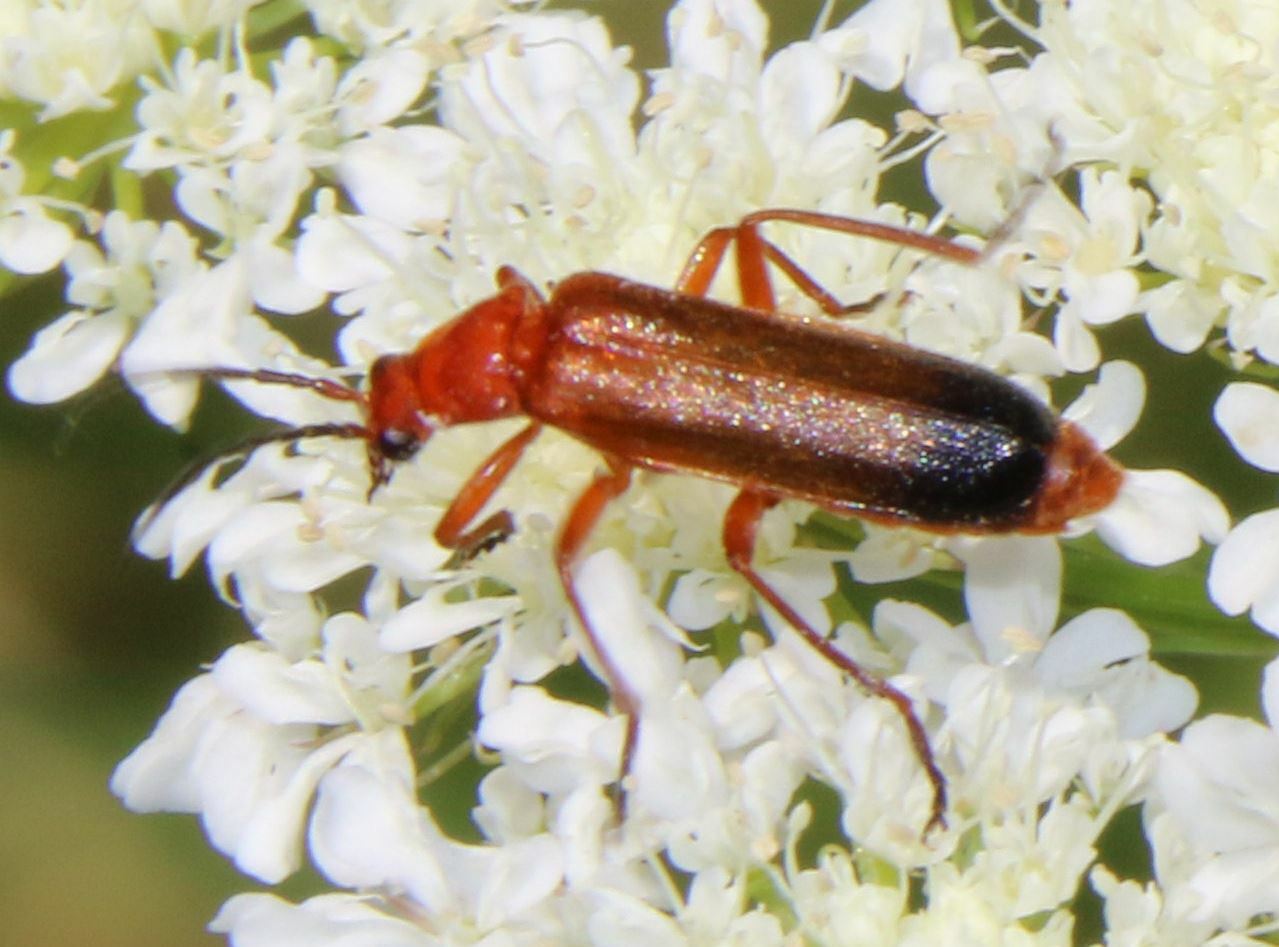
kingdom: Animalia
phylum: Arthropoda
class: Insecta
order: Coleoptera
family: Cantharidae
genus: Rhagonycha
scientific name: Rhagonycha fulva
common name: Common red soldier beetle
